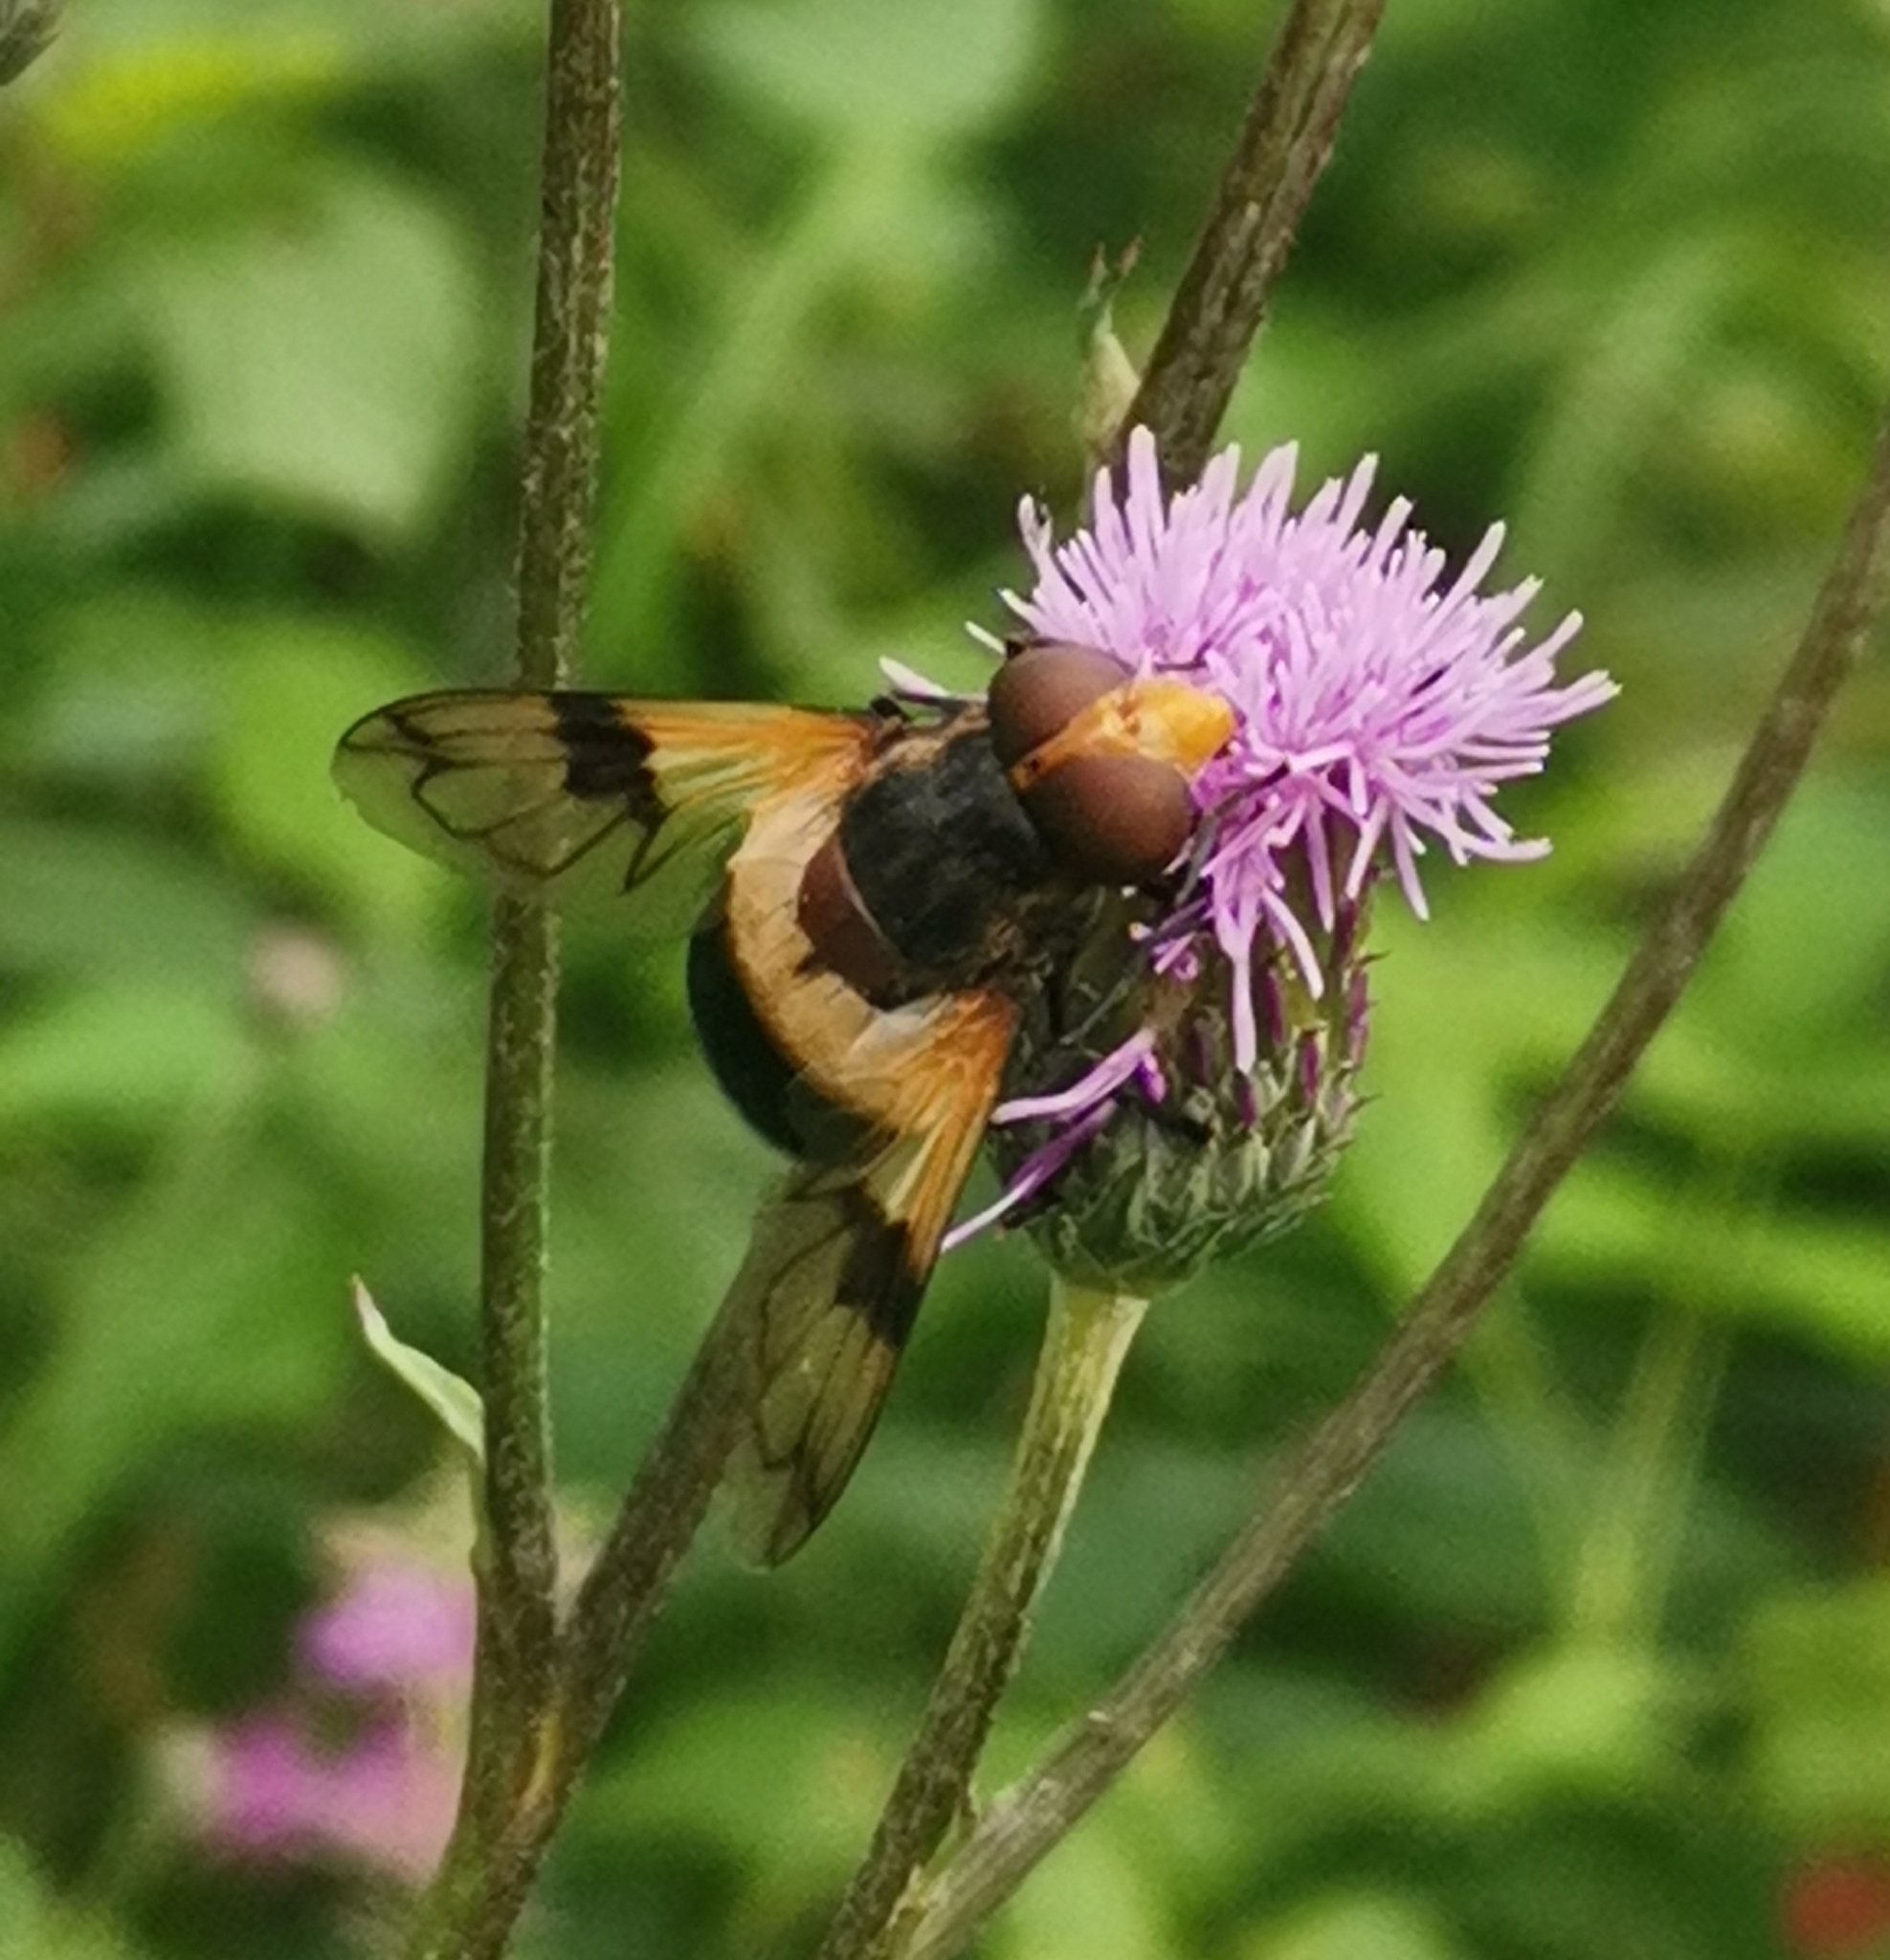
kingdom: Animalia
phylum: Arthropoda
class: Insecta
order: Diptera
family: Syrphidae
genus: Volucella
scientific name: Volucella pellucens
